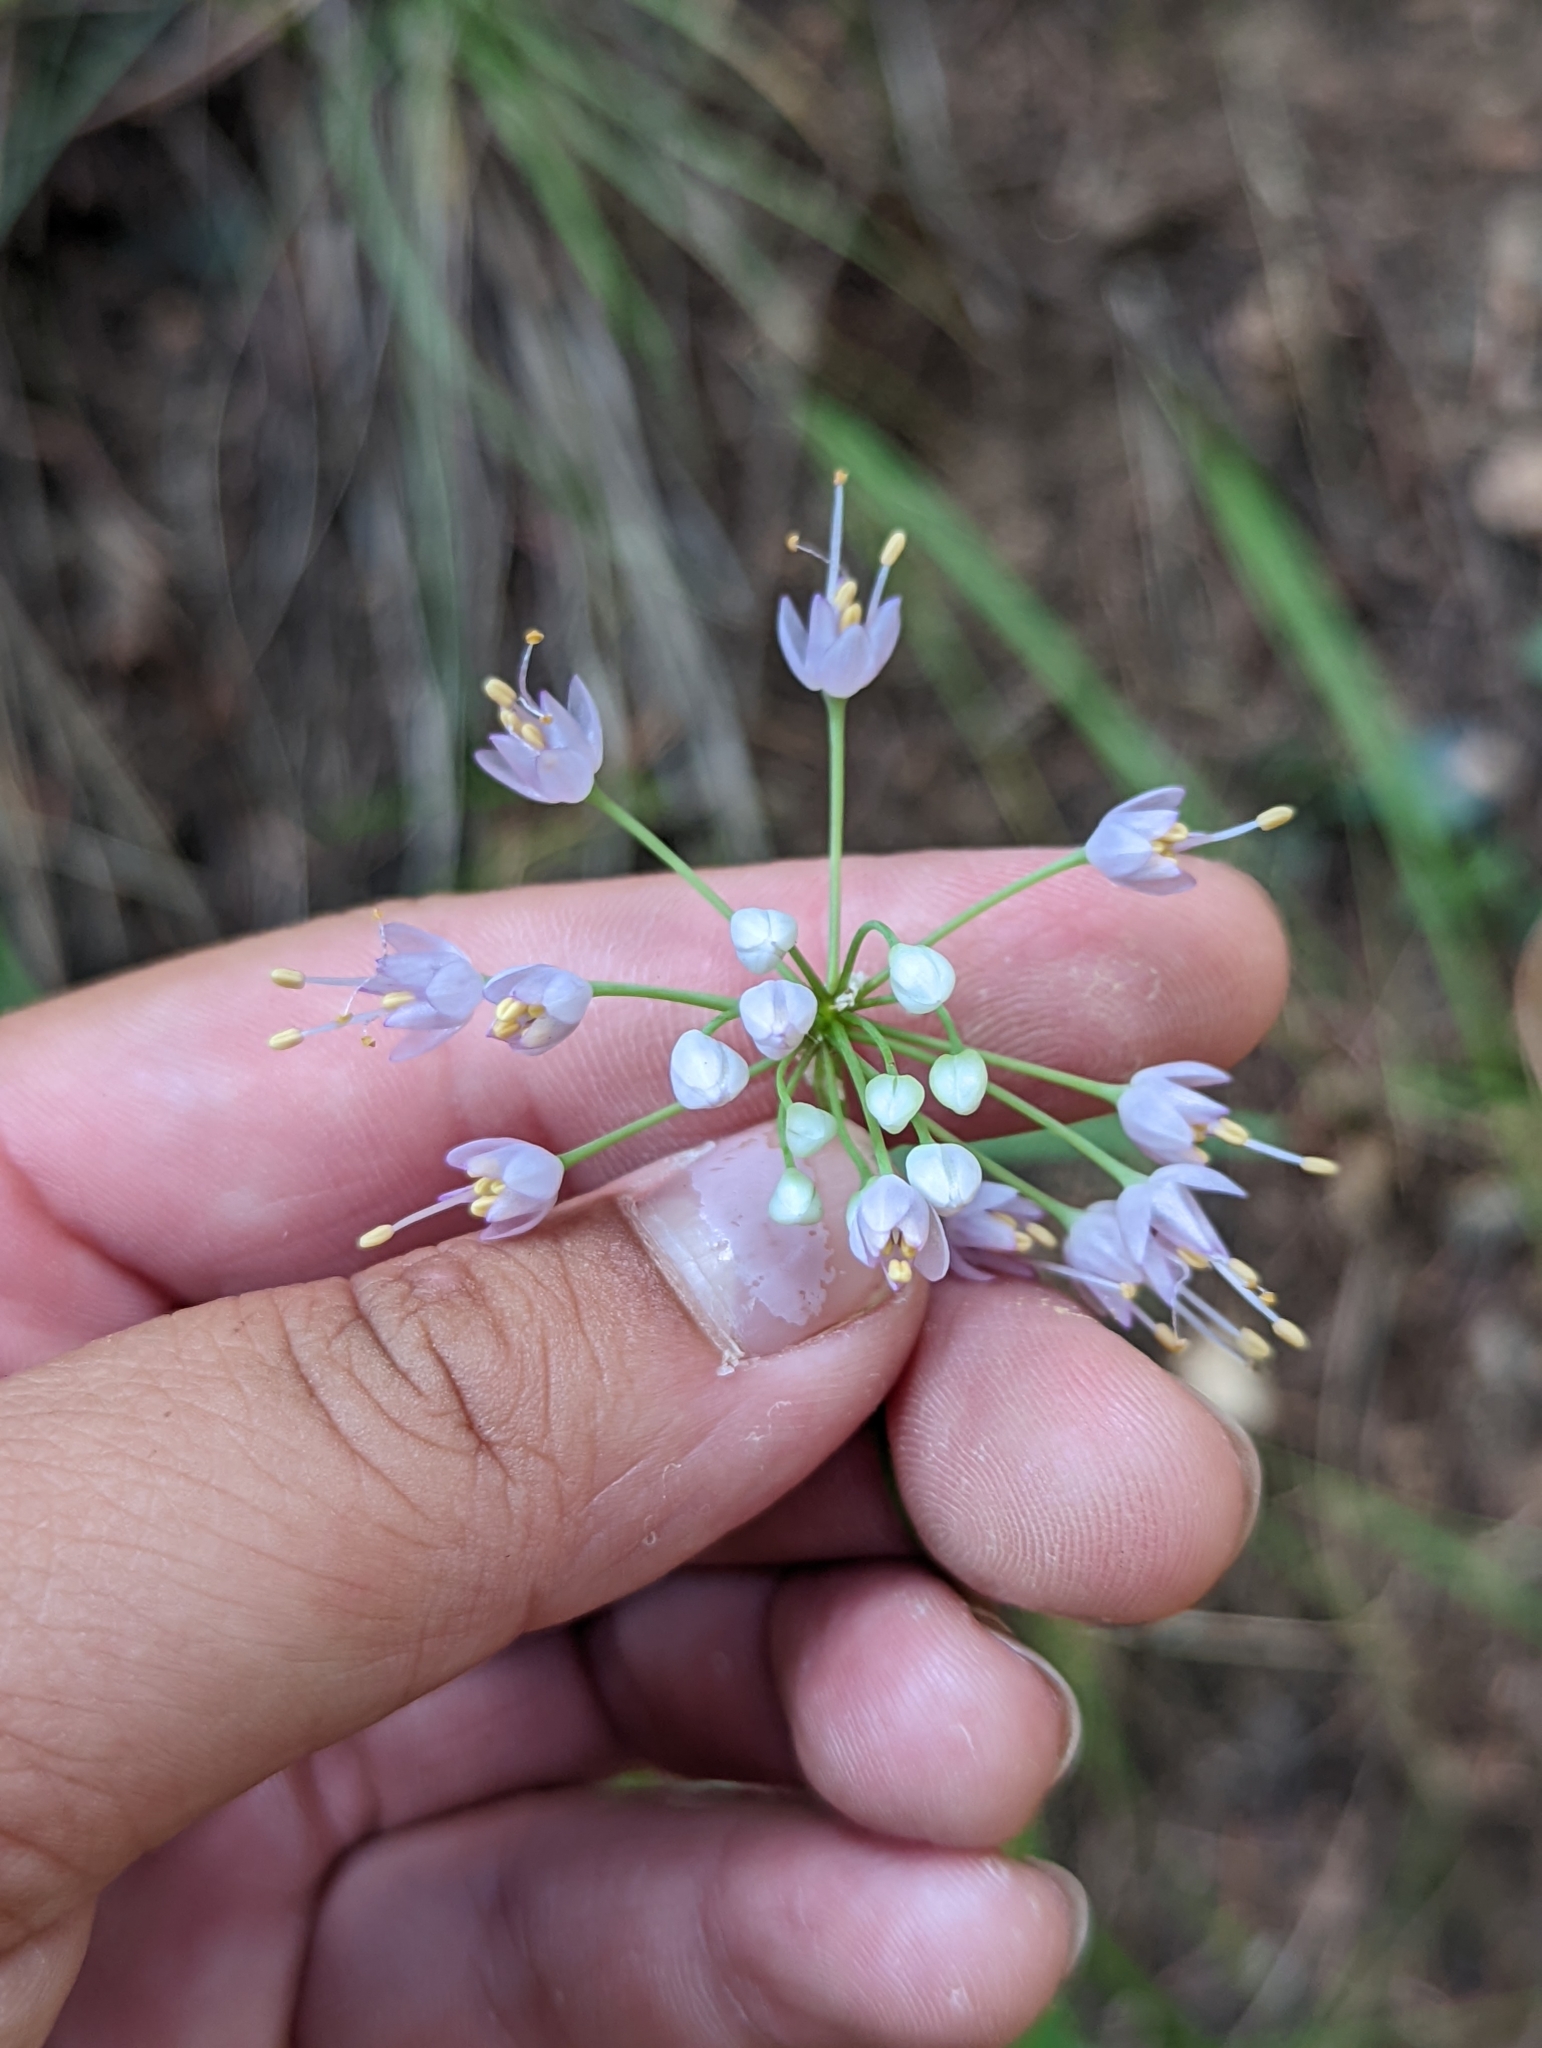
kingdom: Plantae
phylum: Tracheophyta
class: Liliopsida
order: Asparagales
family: Amaryllidaceae
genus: Allium
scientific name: Allium cernuum
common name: Nodding onion
